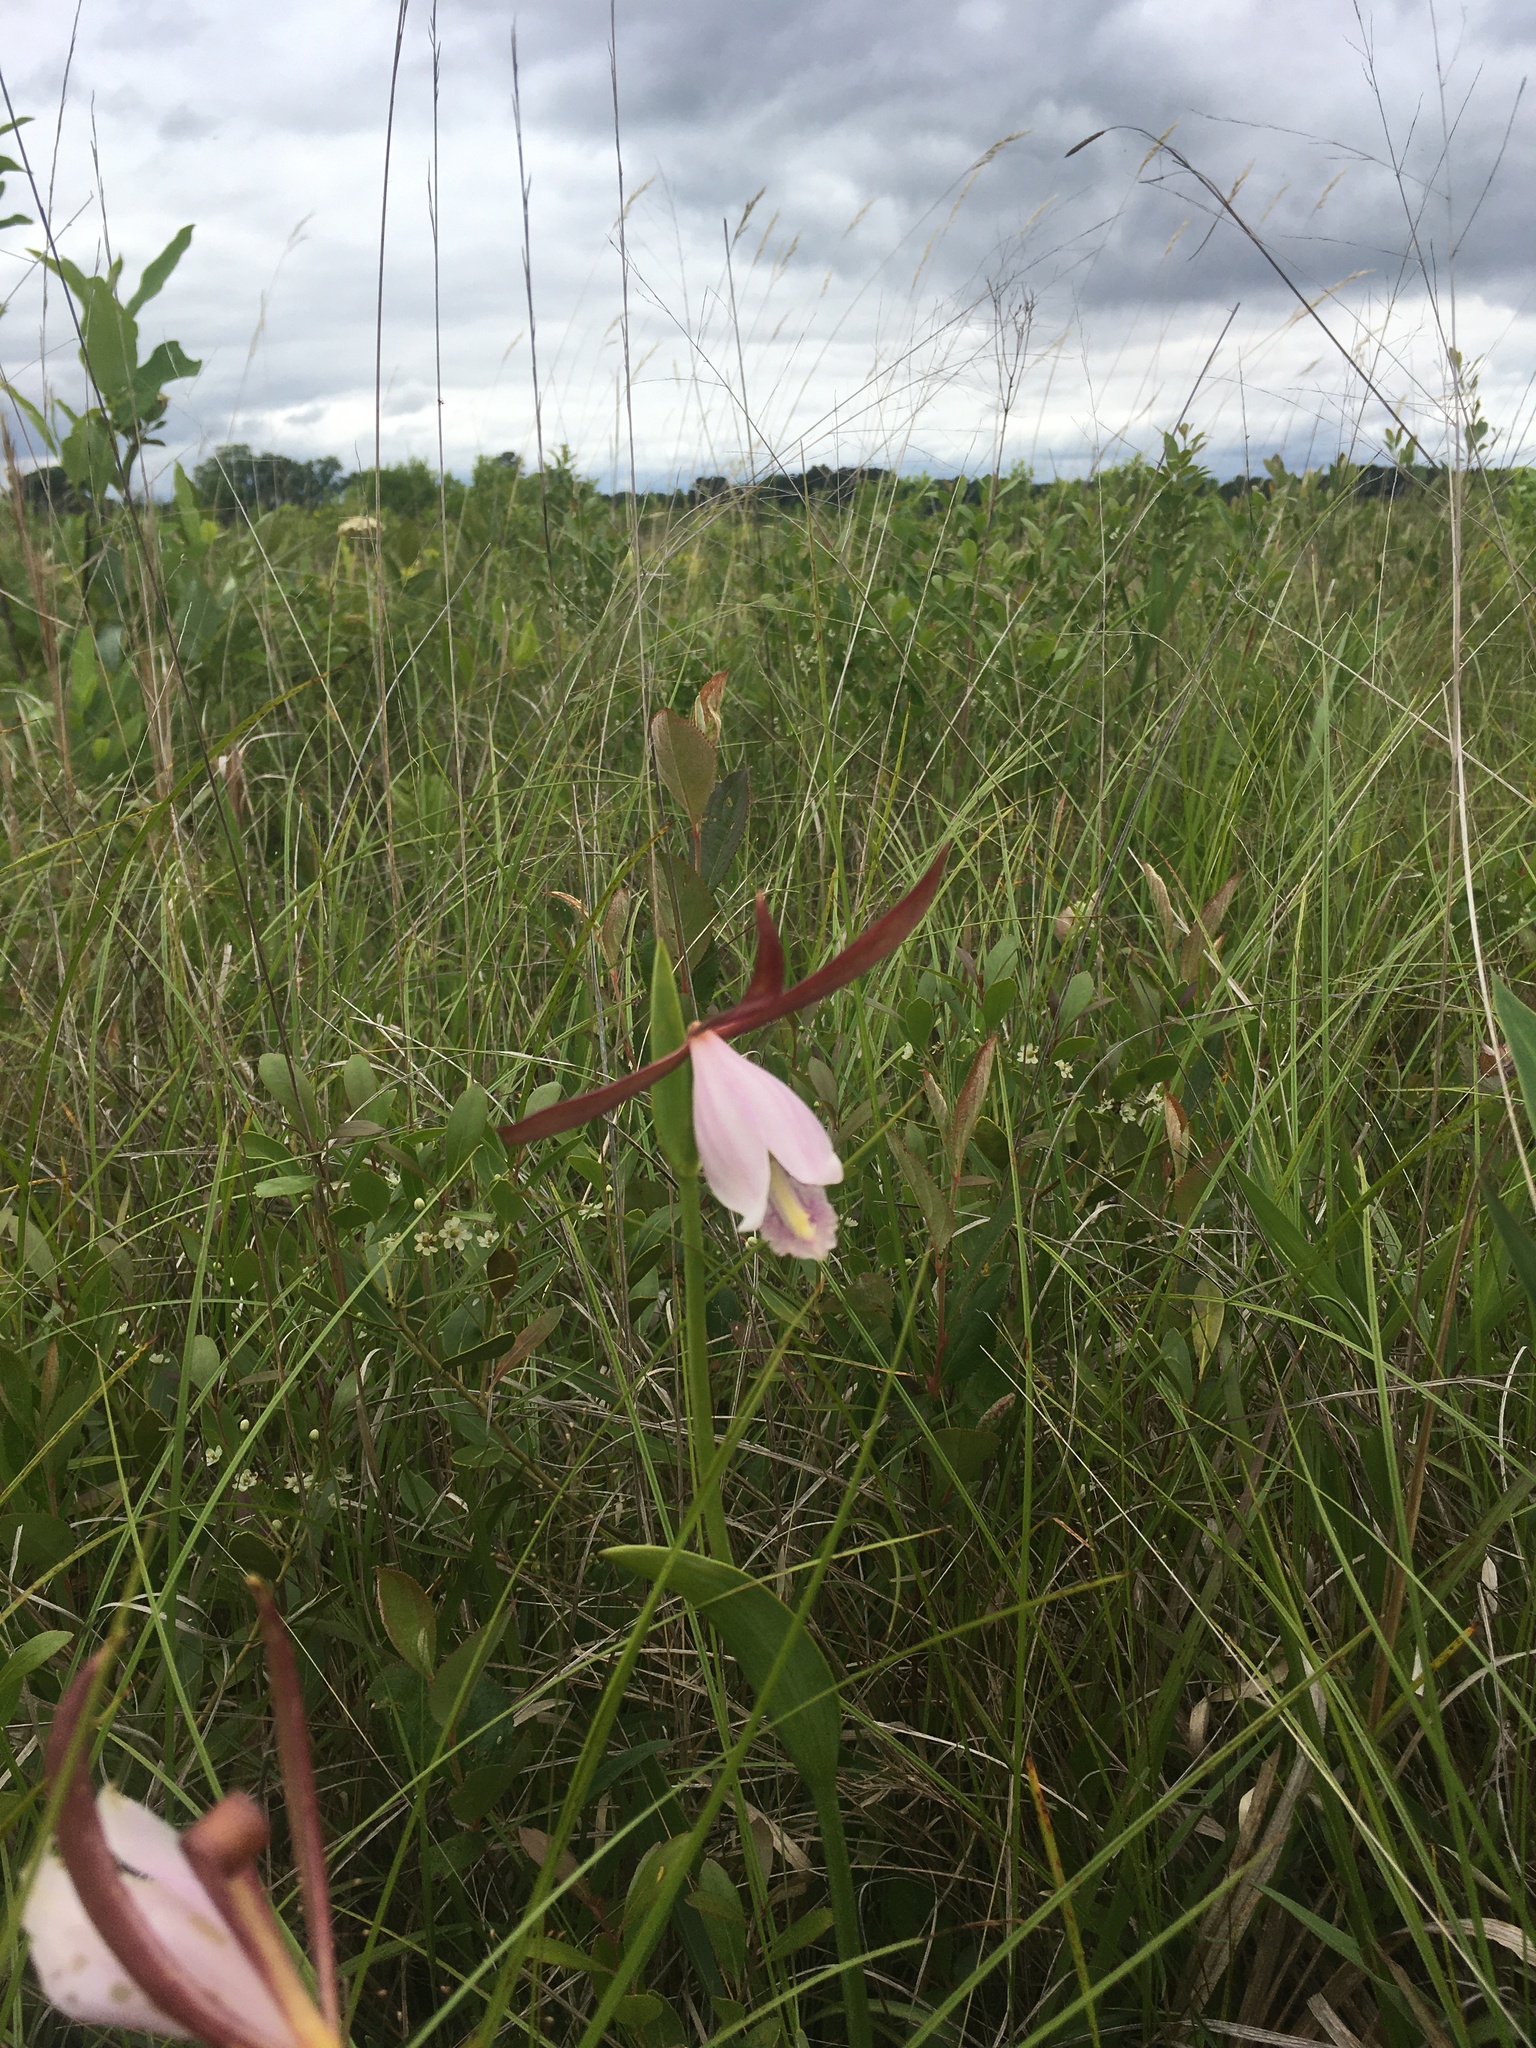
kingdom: Plantae
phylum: Tracheophyta
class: Liliopsida
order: Asparagales
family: Orchidaceae
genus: Cleistesiopsis
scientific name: Cleistesiopsis divaricata
